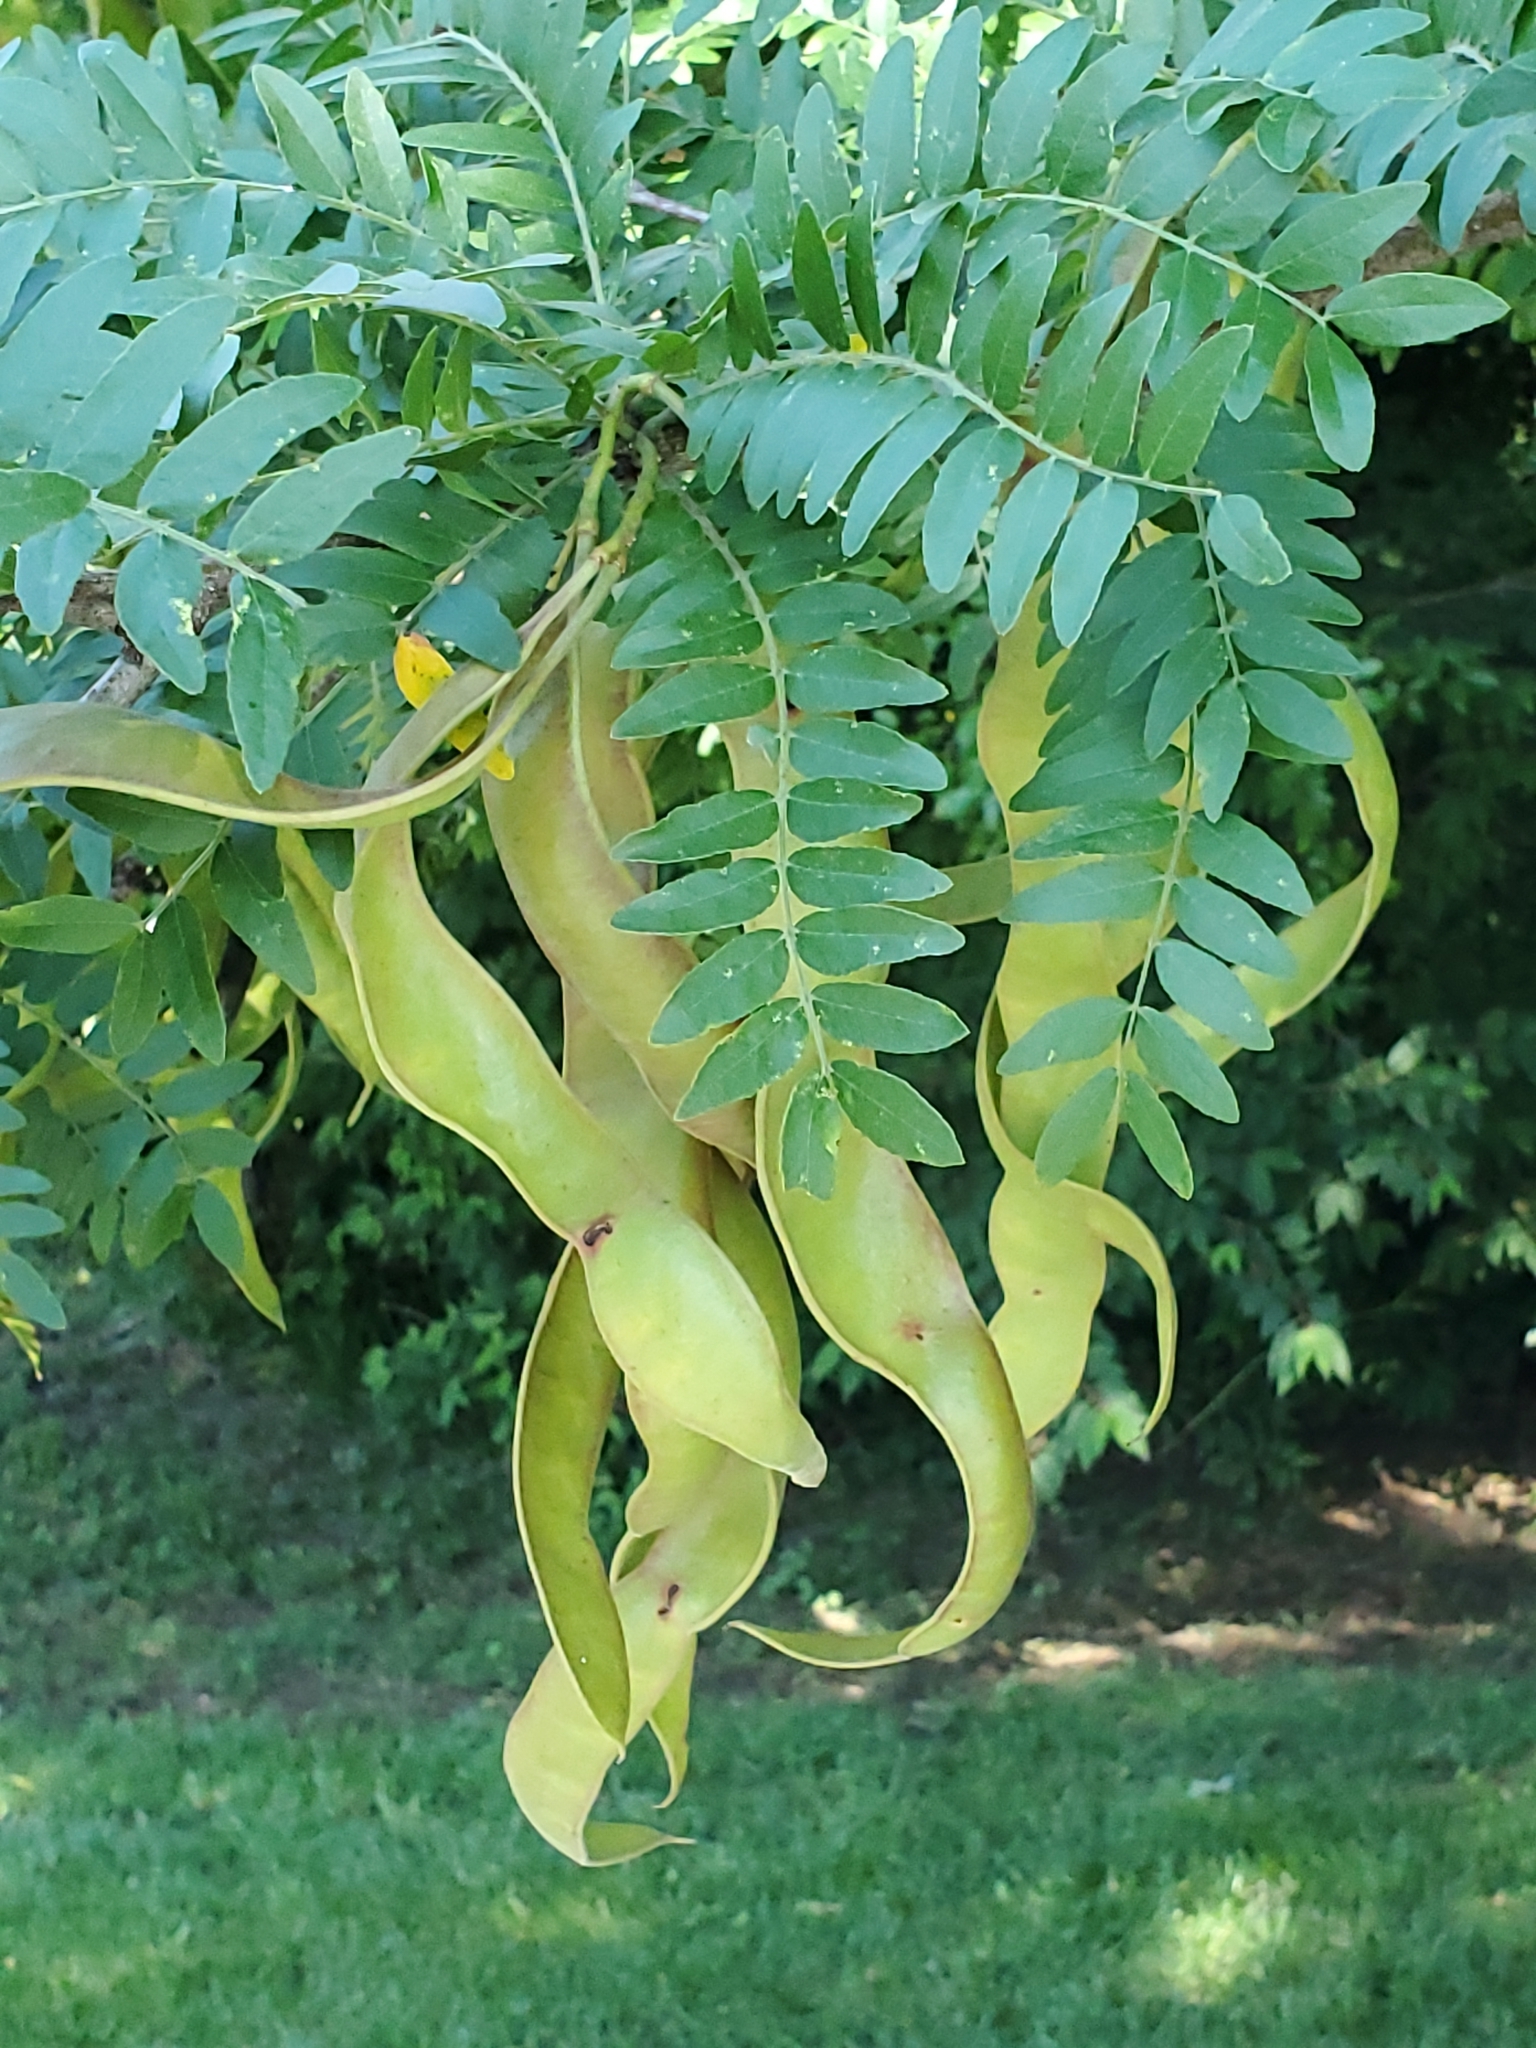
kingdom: Plantae
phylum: Tracheophyta
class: Magnoliopsida
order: Fabales
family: Fabaceae
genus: Gleditsia
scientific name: Gleditsia triacanthos
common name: Common honeylocust
